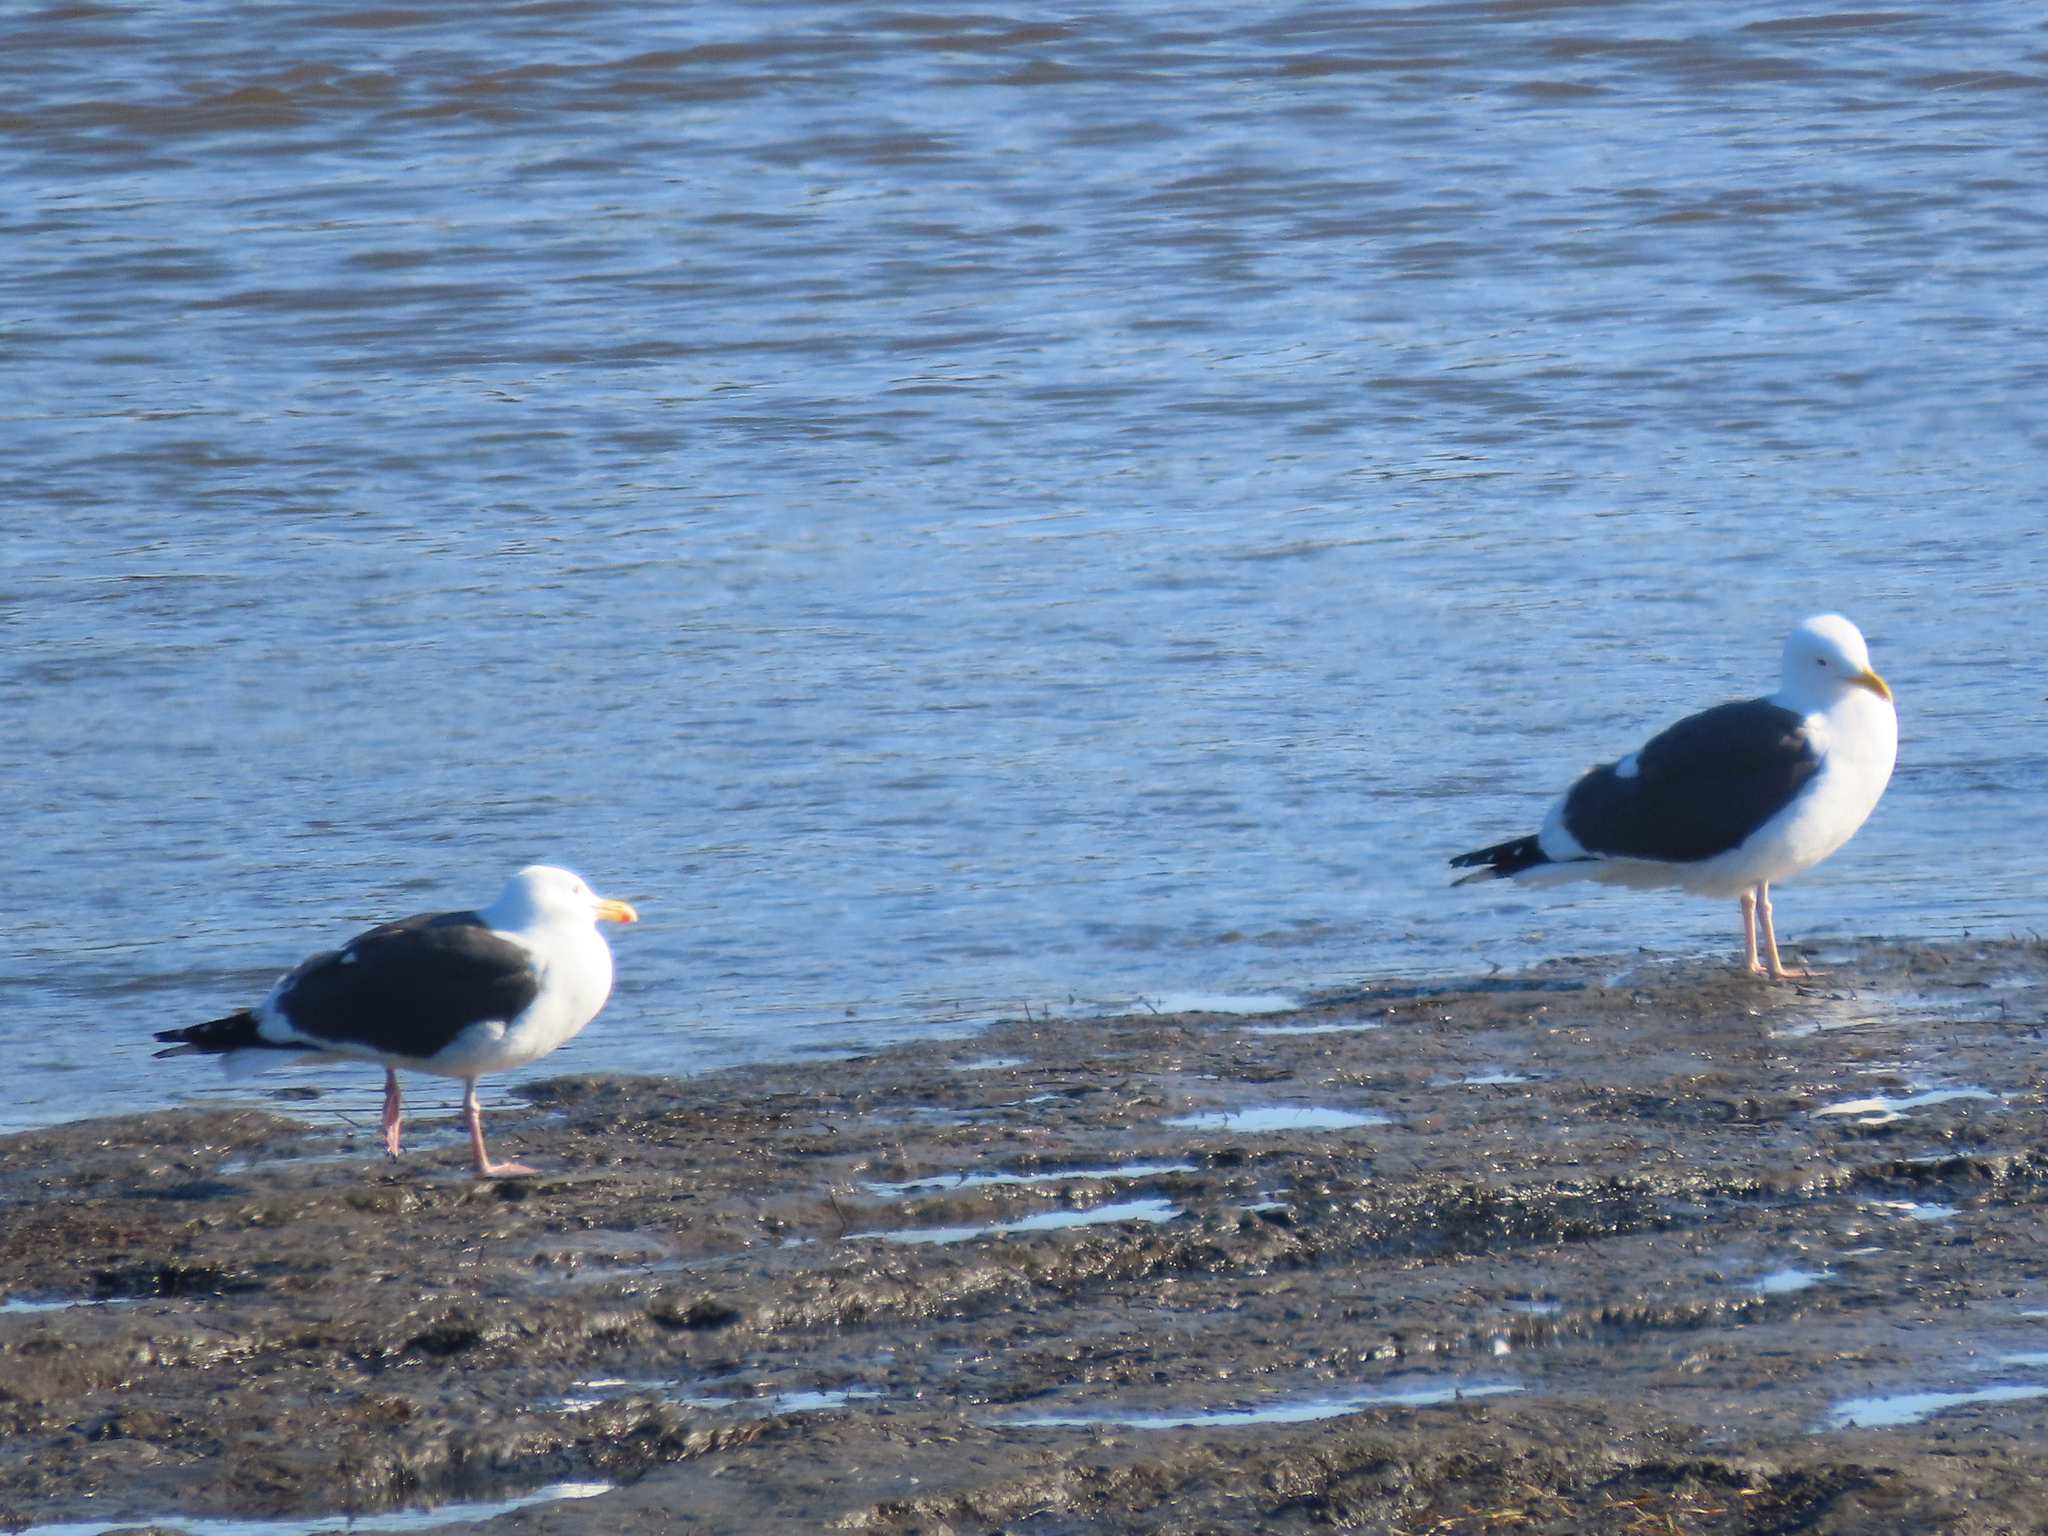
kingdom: Animalia
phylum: Chordata
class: Aves
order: Charadriiformes
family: Laridae
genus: Larus
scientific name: Larus occidentalis
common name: Western gull
